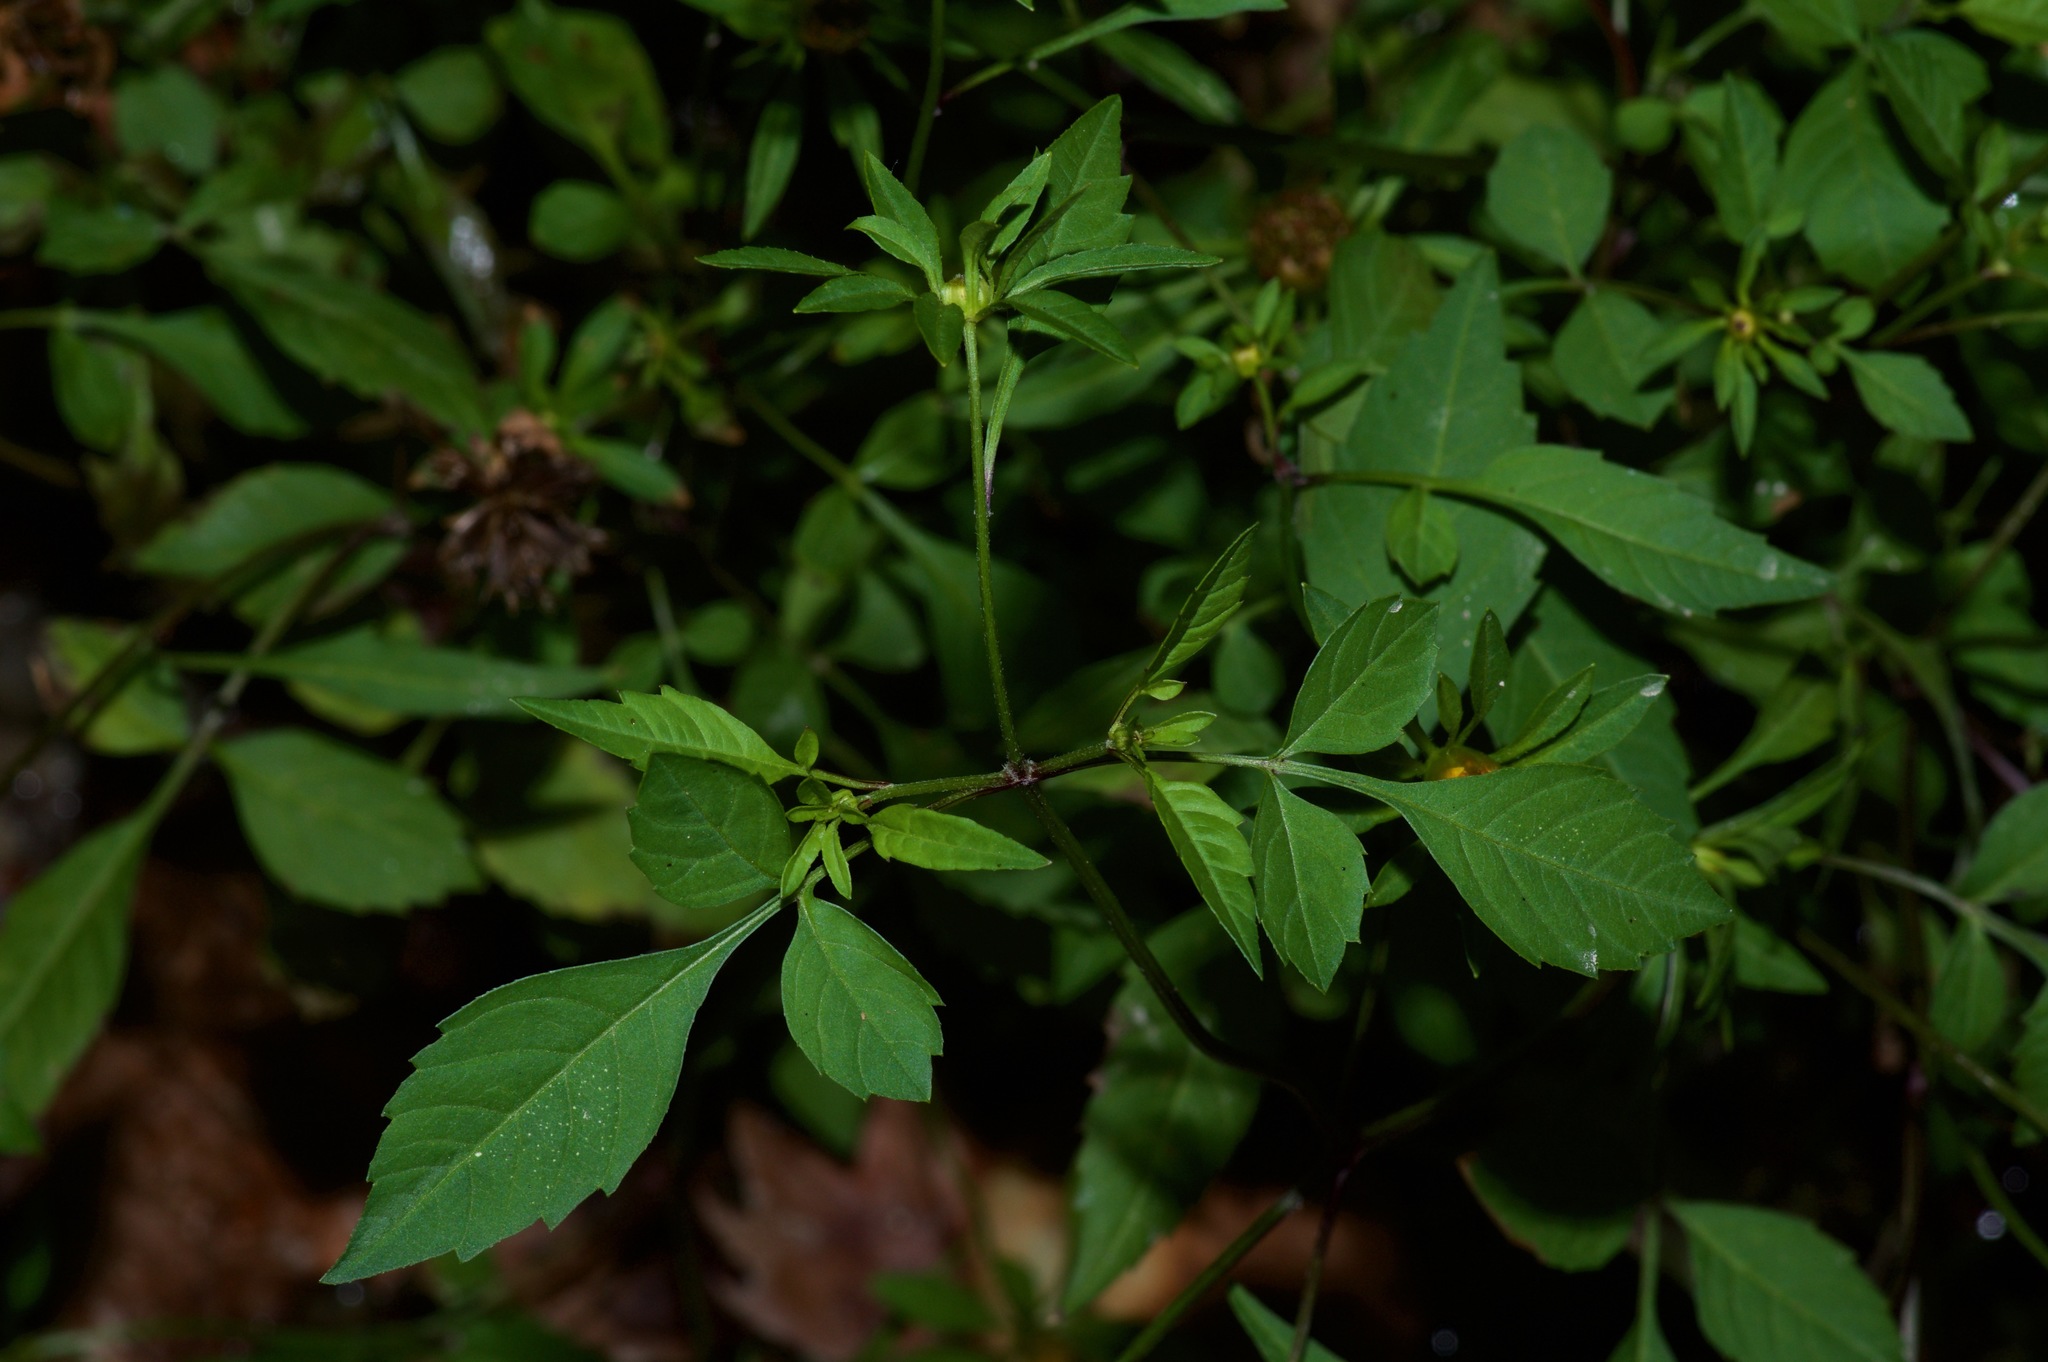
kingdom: Plantae
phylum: Tracheophyta
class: Magnoliopsida
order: Asterales
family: Asteraceae
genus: Bidens
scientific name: Bidens frondosa
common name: Beggarticks
